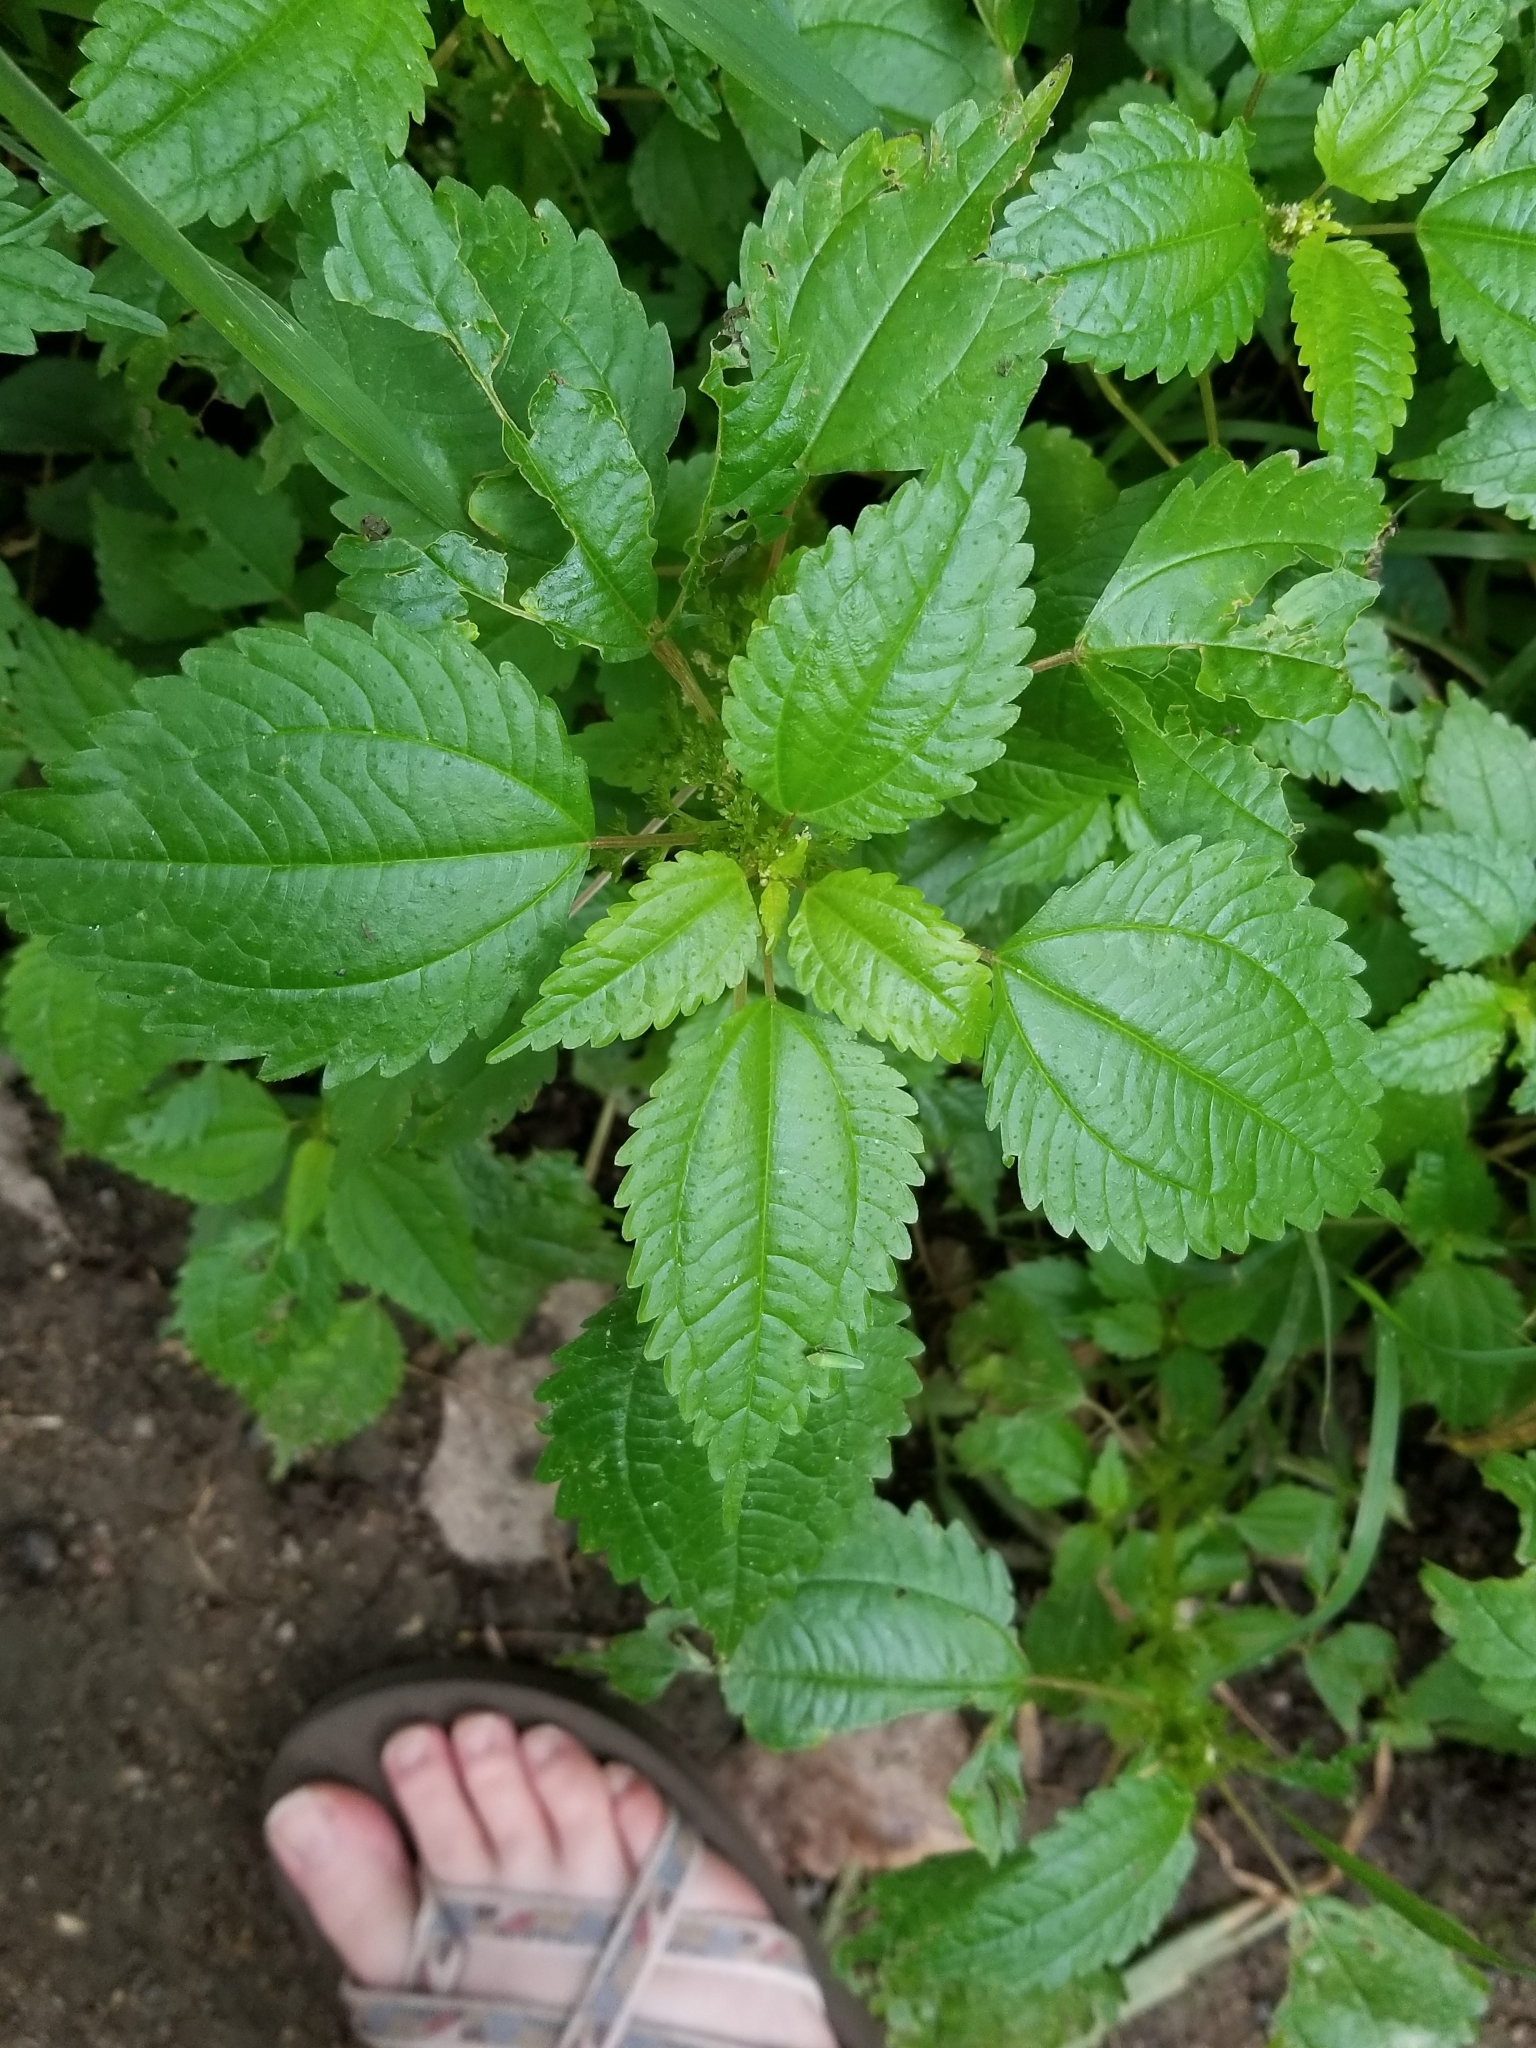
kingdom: Plantae
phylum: Tracheophyta
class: Magnoliopsida
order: Rosales
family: Urticaceae
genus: Pilea
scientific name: Pilea pumila
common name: Clearweed
